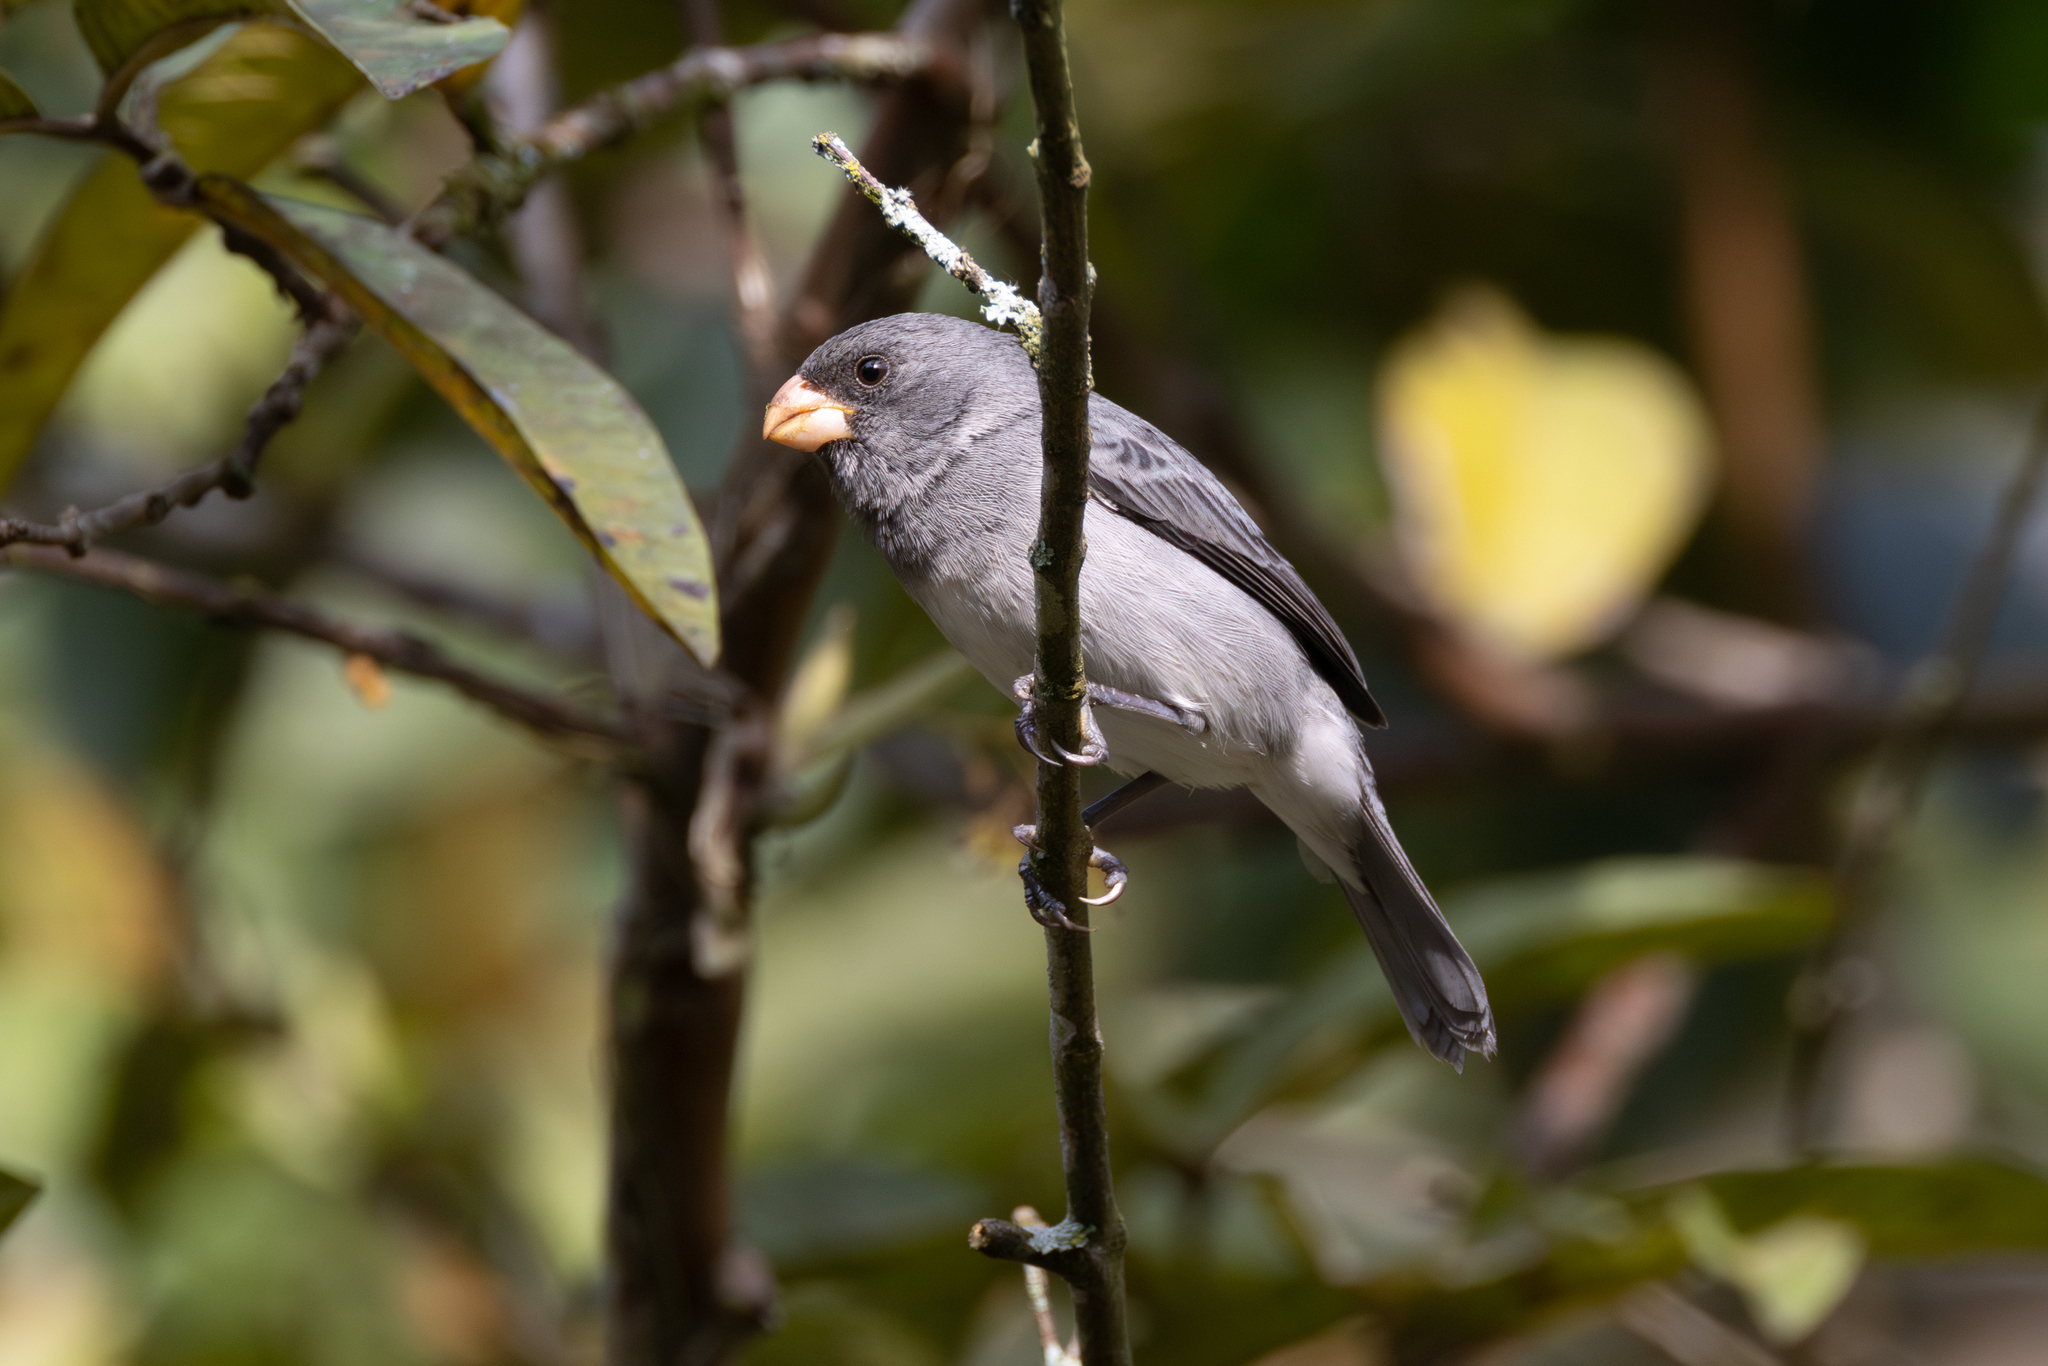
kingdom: Animalia
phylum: Chordata
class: Aves
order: Passeriformes
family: Thraupidae
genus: Sporophila
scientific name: Sporophila intermedia
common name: Grey seedeater
